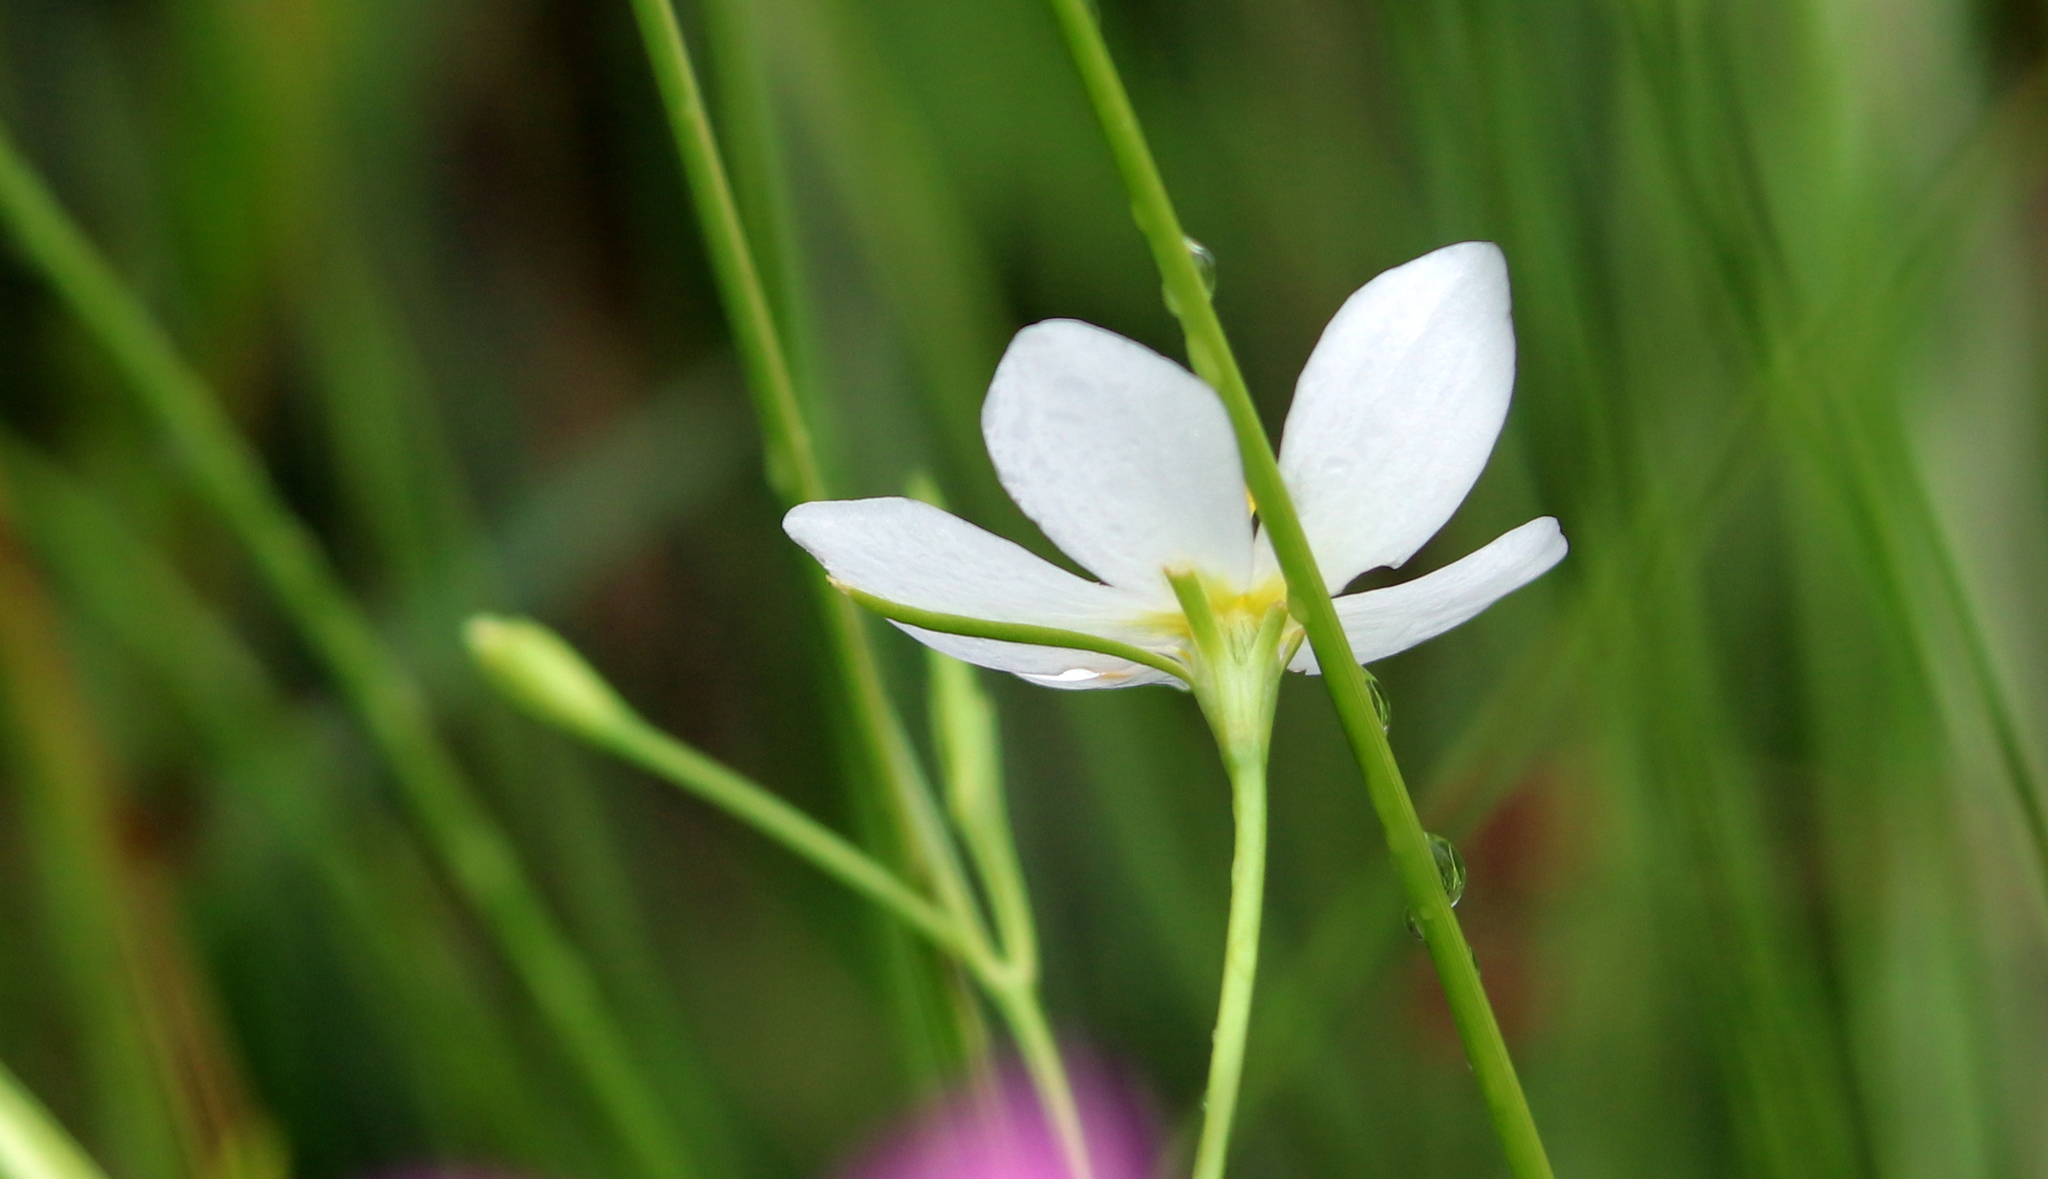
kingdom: Plantae
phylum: Tracheophyta
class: Magnoliopsida
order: Gentianales
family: Gentianaceae
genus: Sabatia
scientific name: Sabatia campanulata
